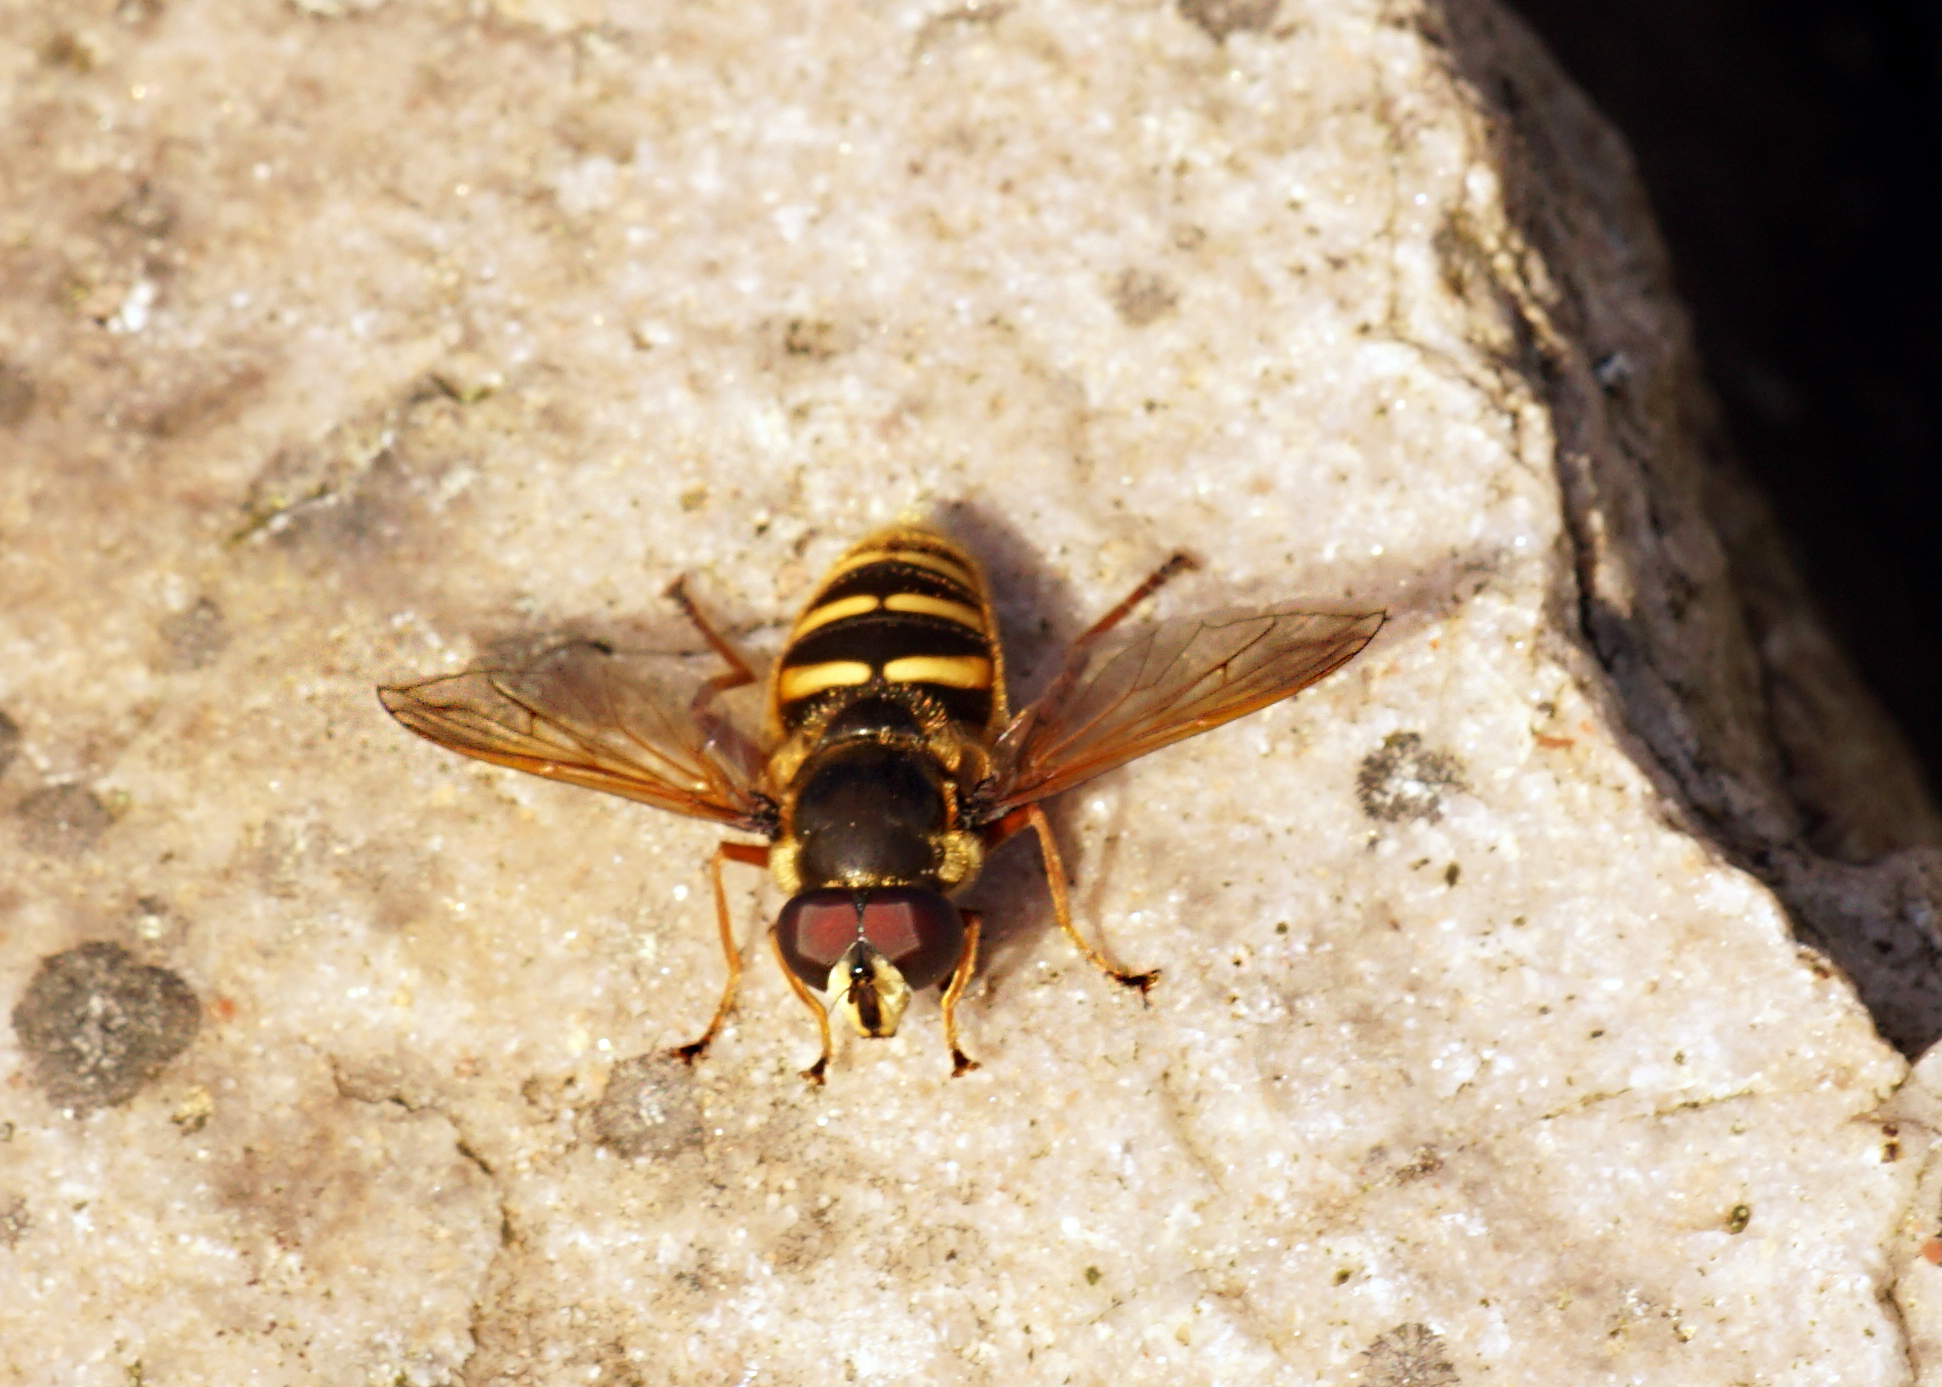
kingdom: Animalia
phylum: Arthropoda
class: Insecta
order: Diptera
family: Syrphidae
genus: Sericomyia
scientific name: Sericomyia silentis
